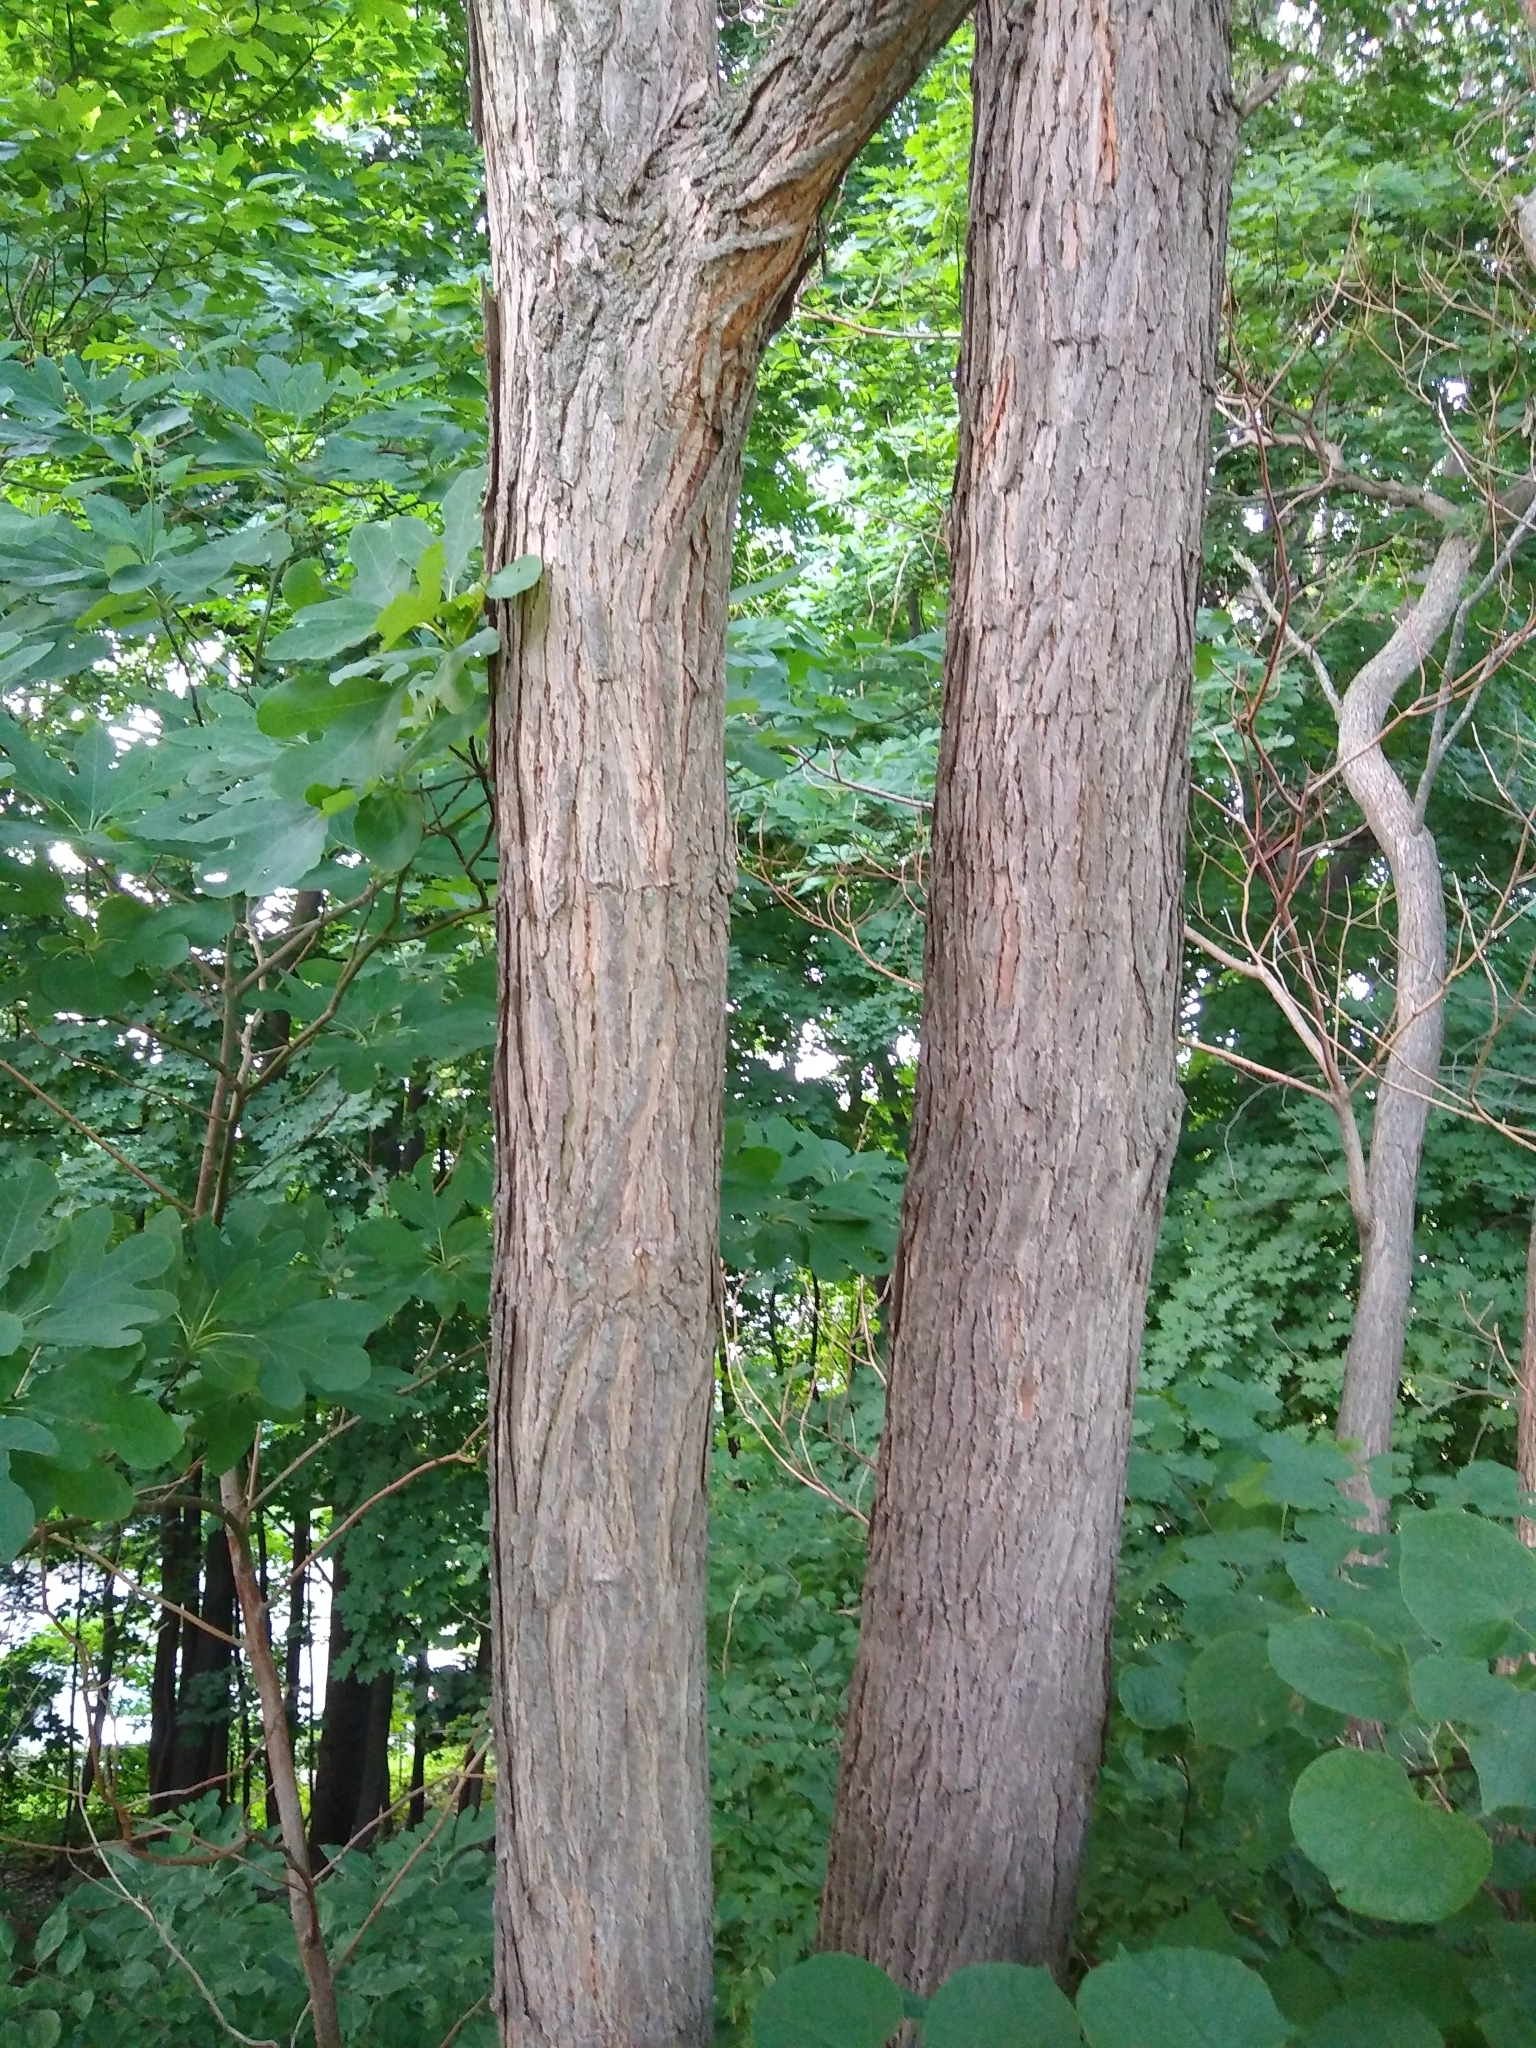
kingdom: Plantae
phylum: Tracheophyta
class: Magnoliopsida
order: Laurales
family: Lauraceae
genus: Sassafras
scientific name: Sassafras albidum
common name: Sassafras
